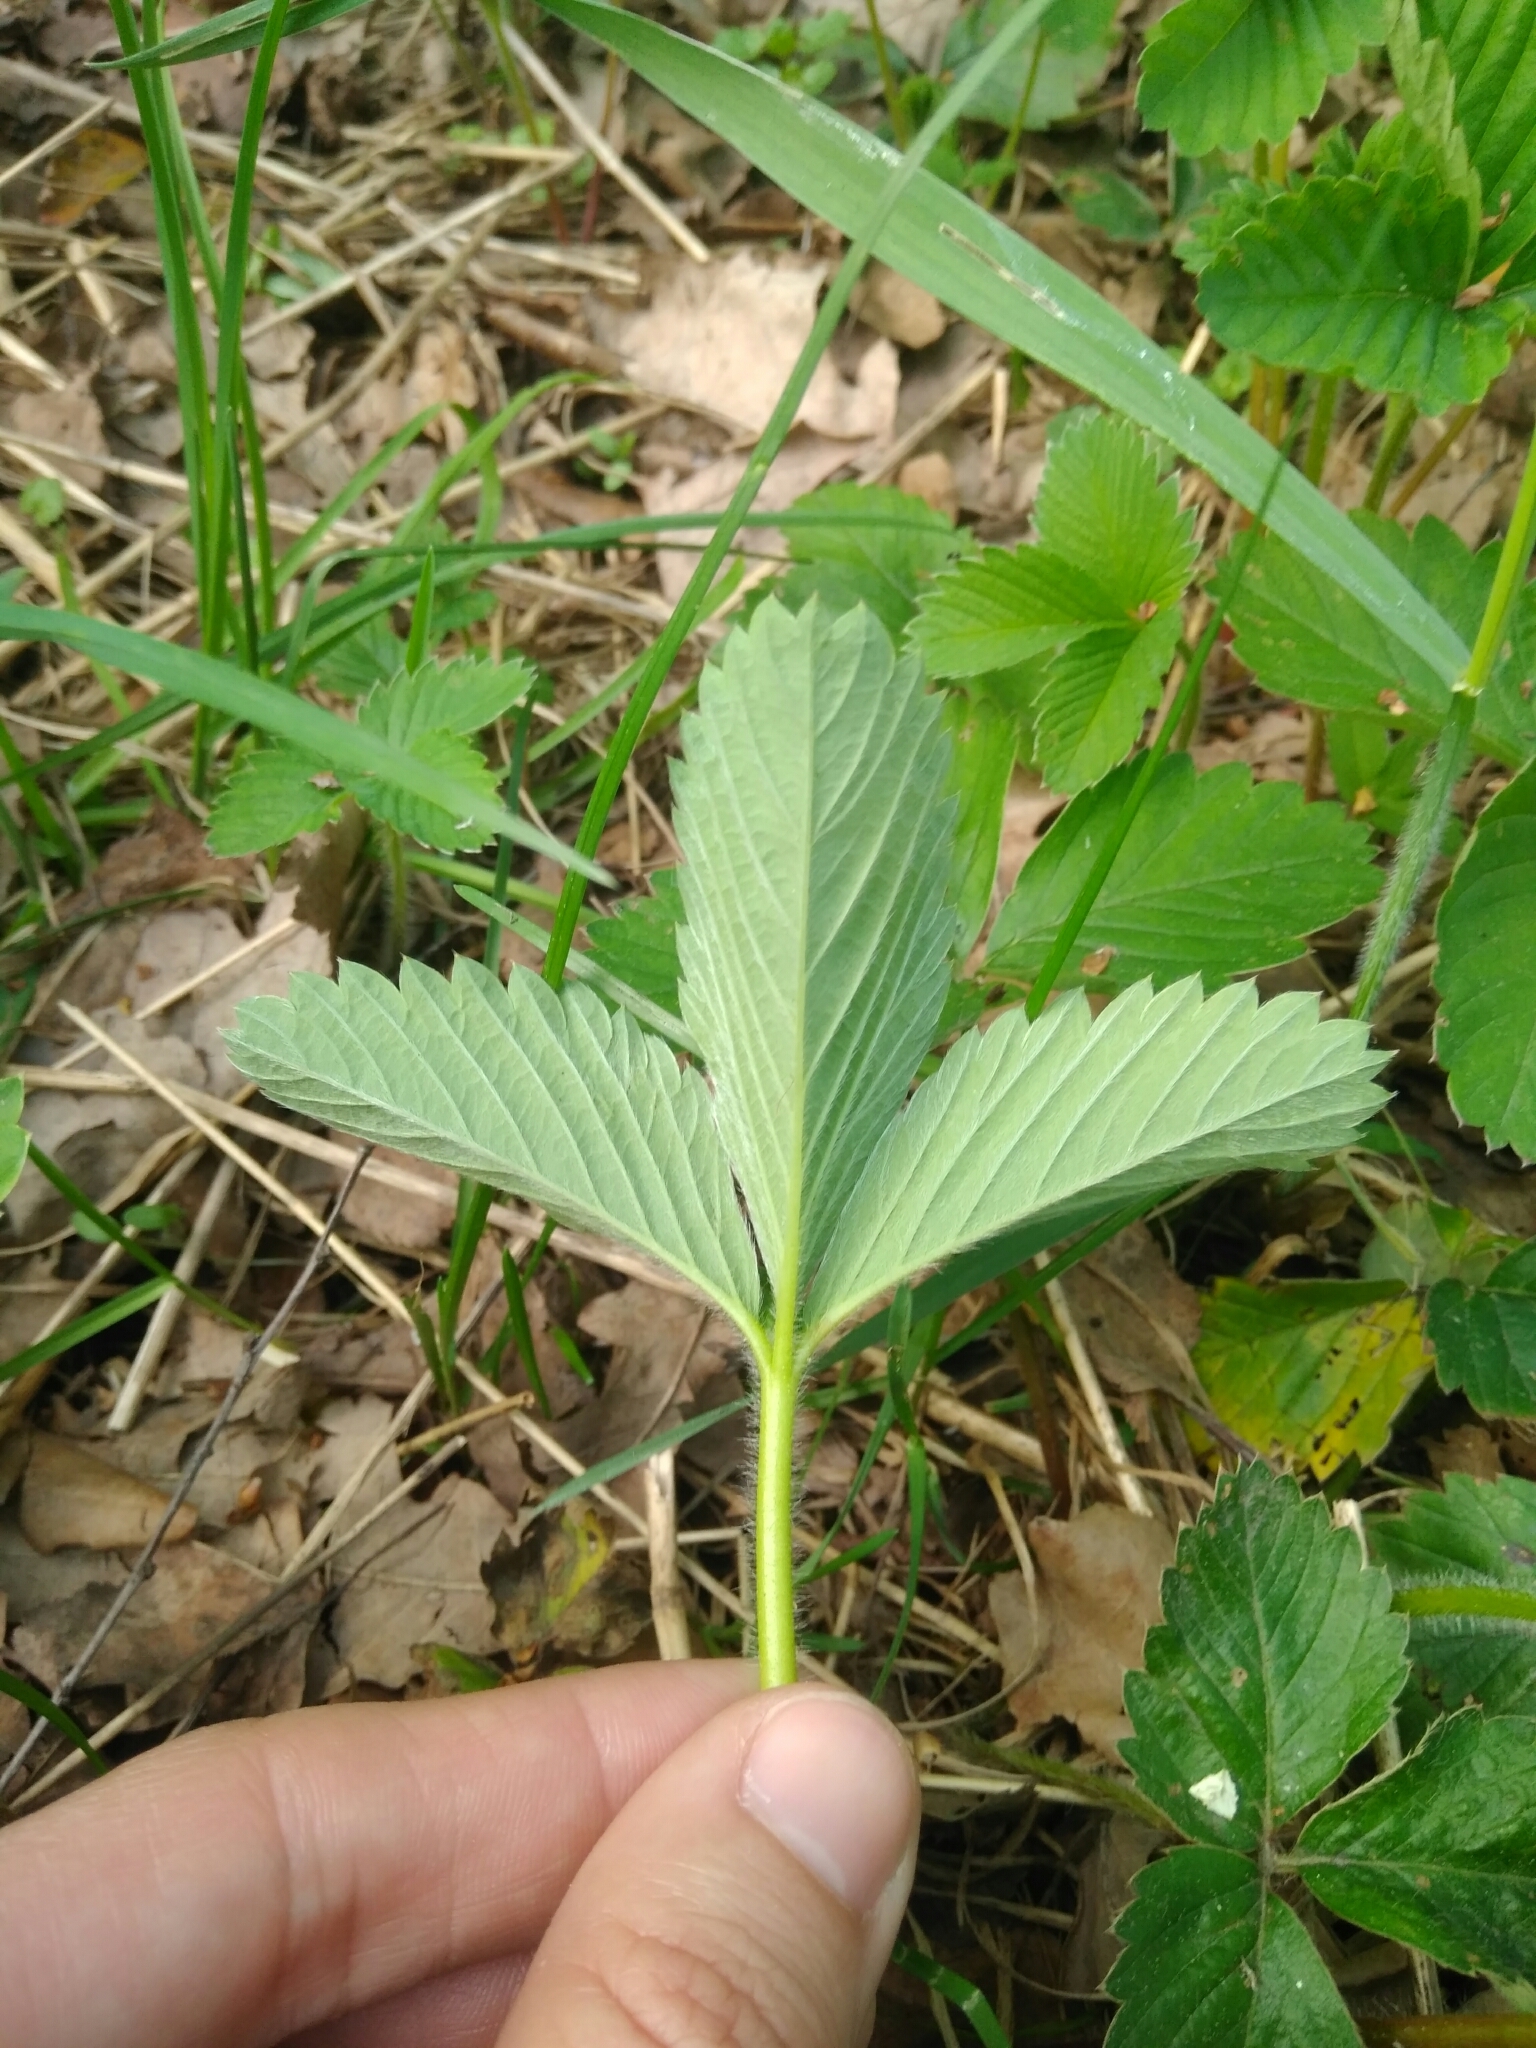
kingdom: Plantae
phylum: Tracheophyta
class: Magnoliopsida
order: Rosales
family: Rosaceae
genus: Fragaria
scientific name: Fragaria ananassa
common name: Garden strawberry
